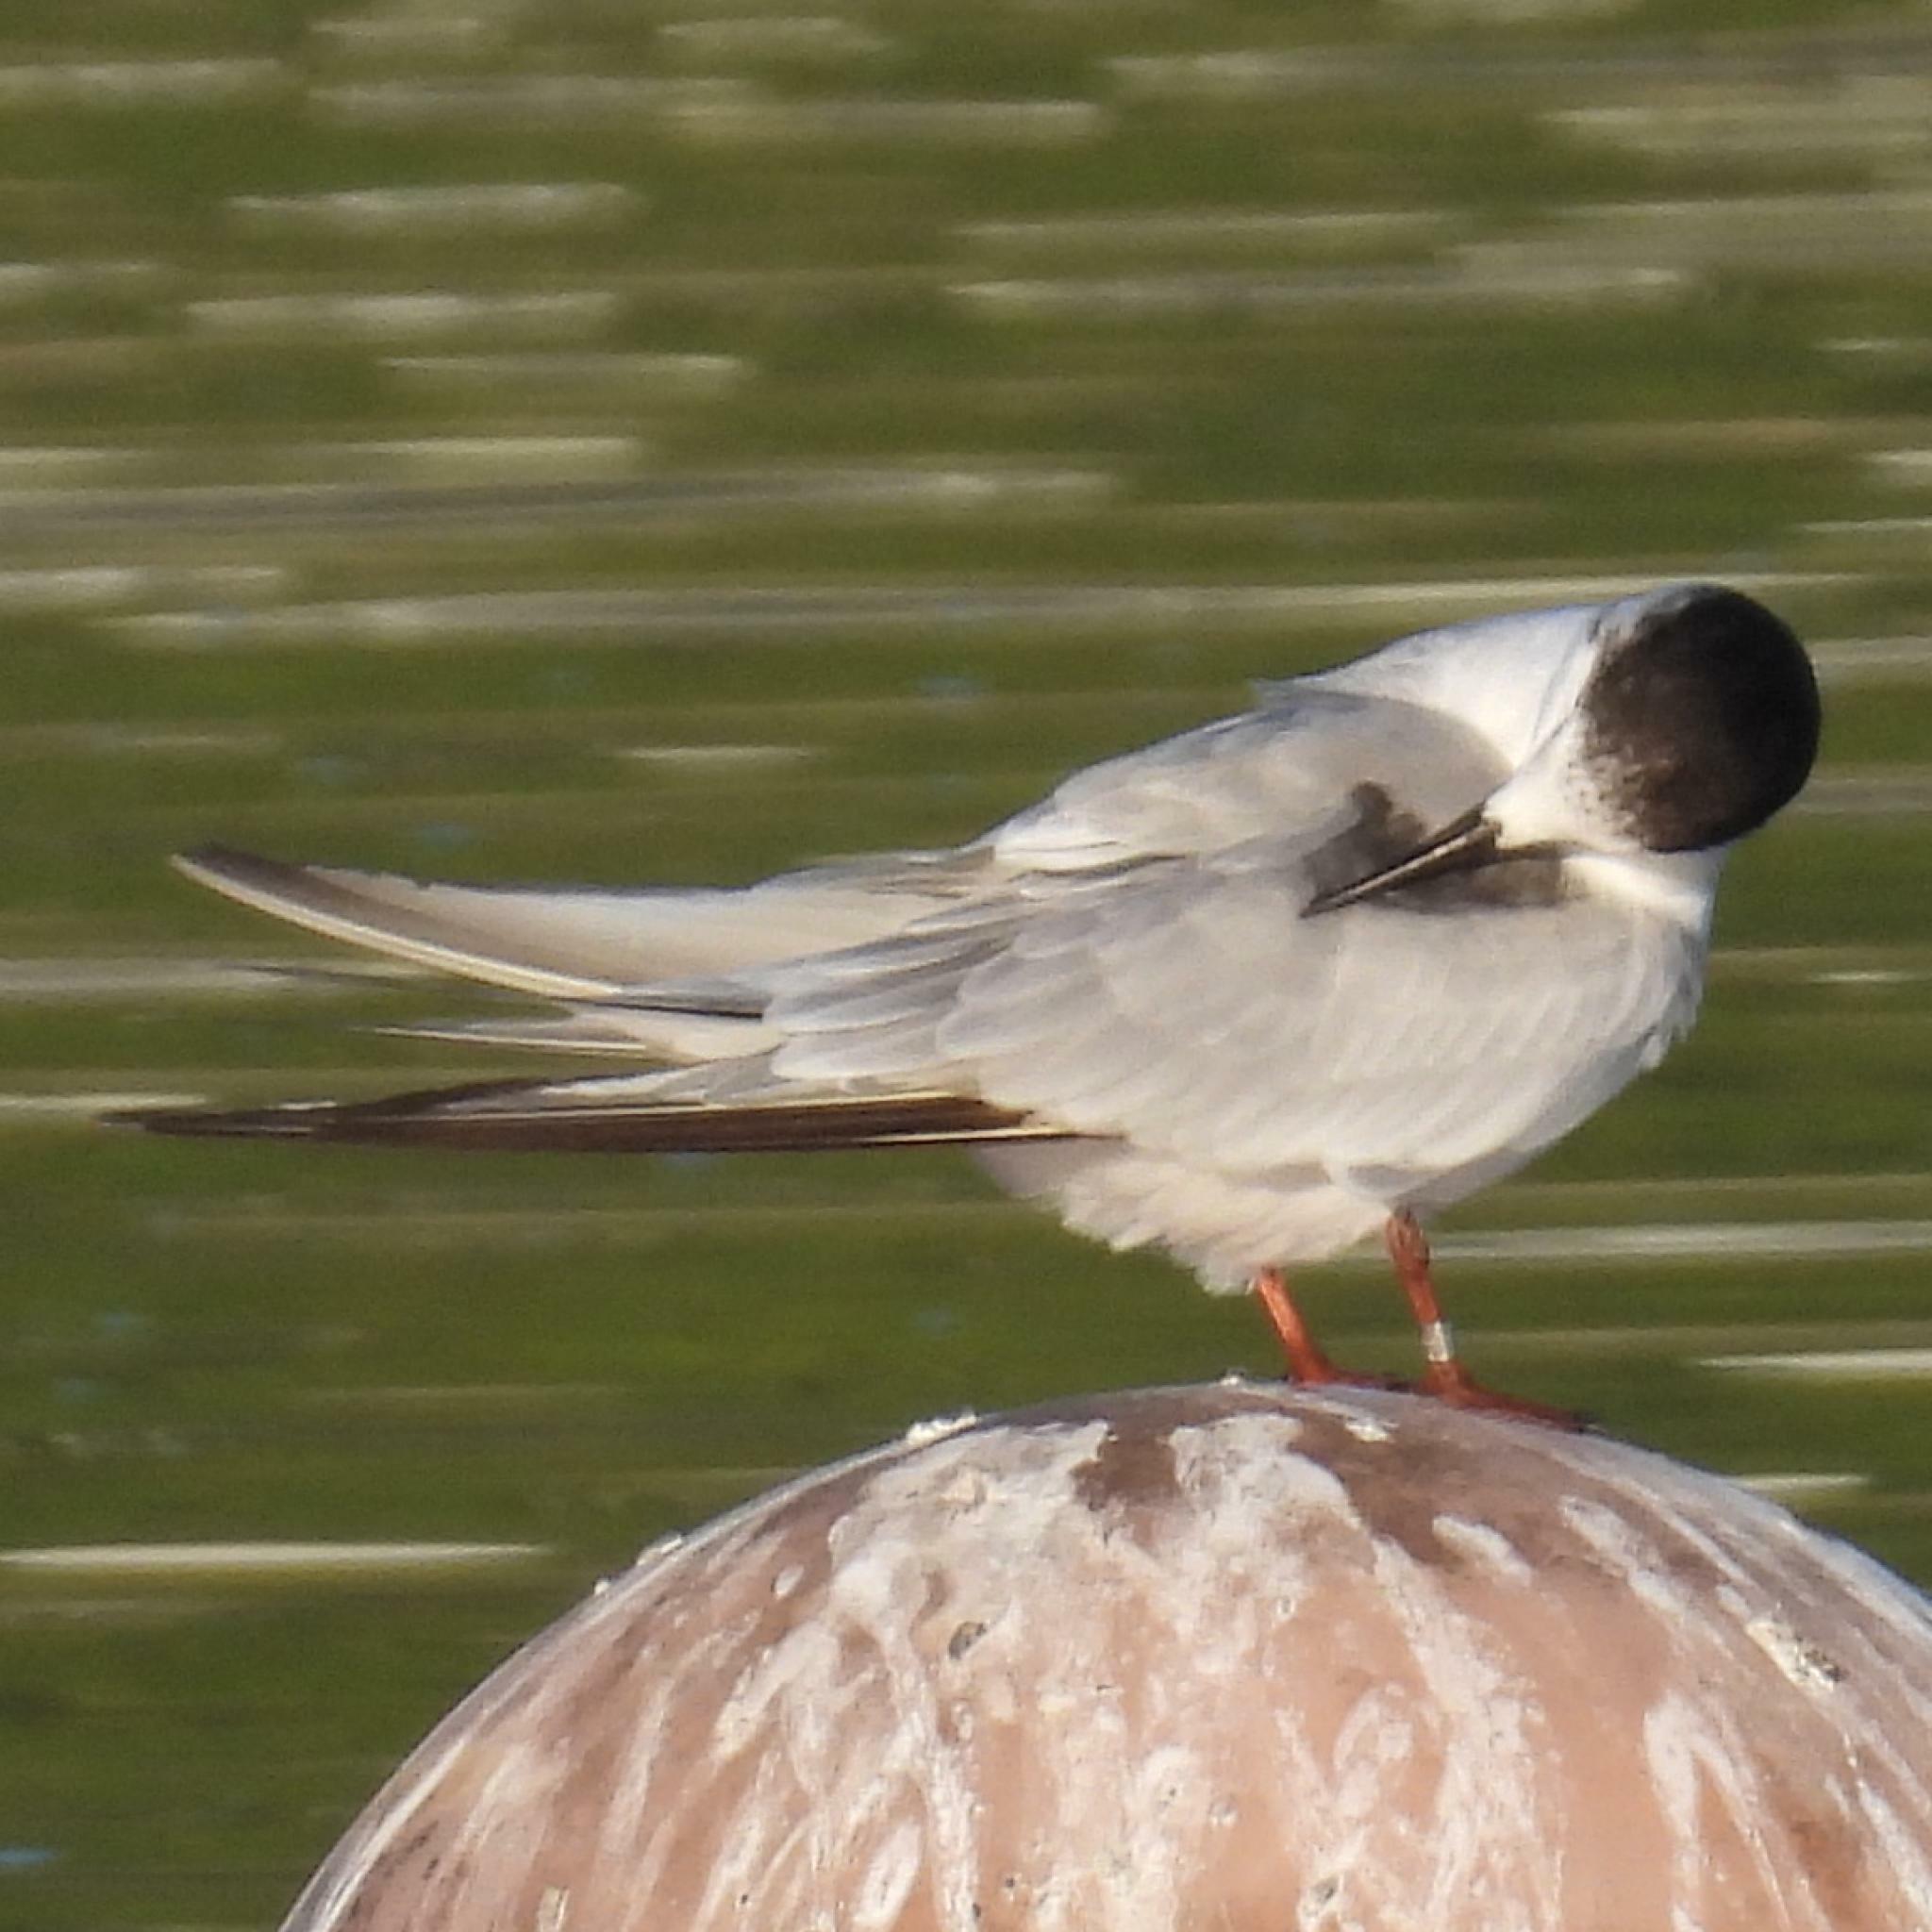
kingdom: Animalia
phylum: Chordata
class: Aves
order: Charadriiformes
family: Laridae
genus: Sterna
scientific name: Sterna hirundo
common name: Common tern
